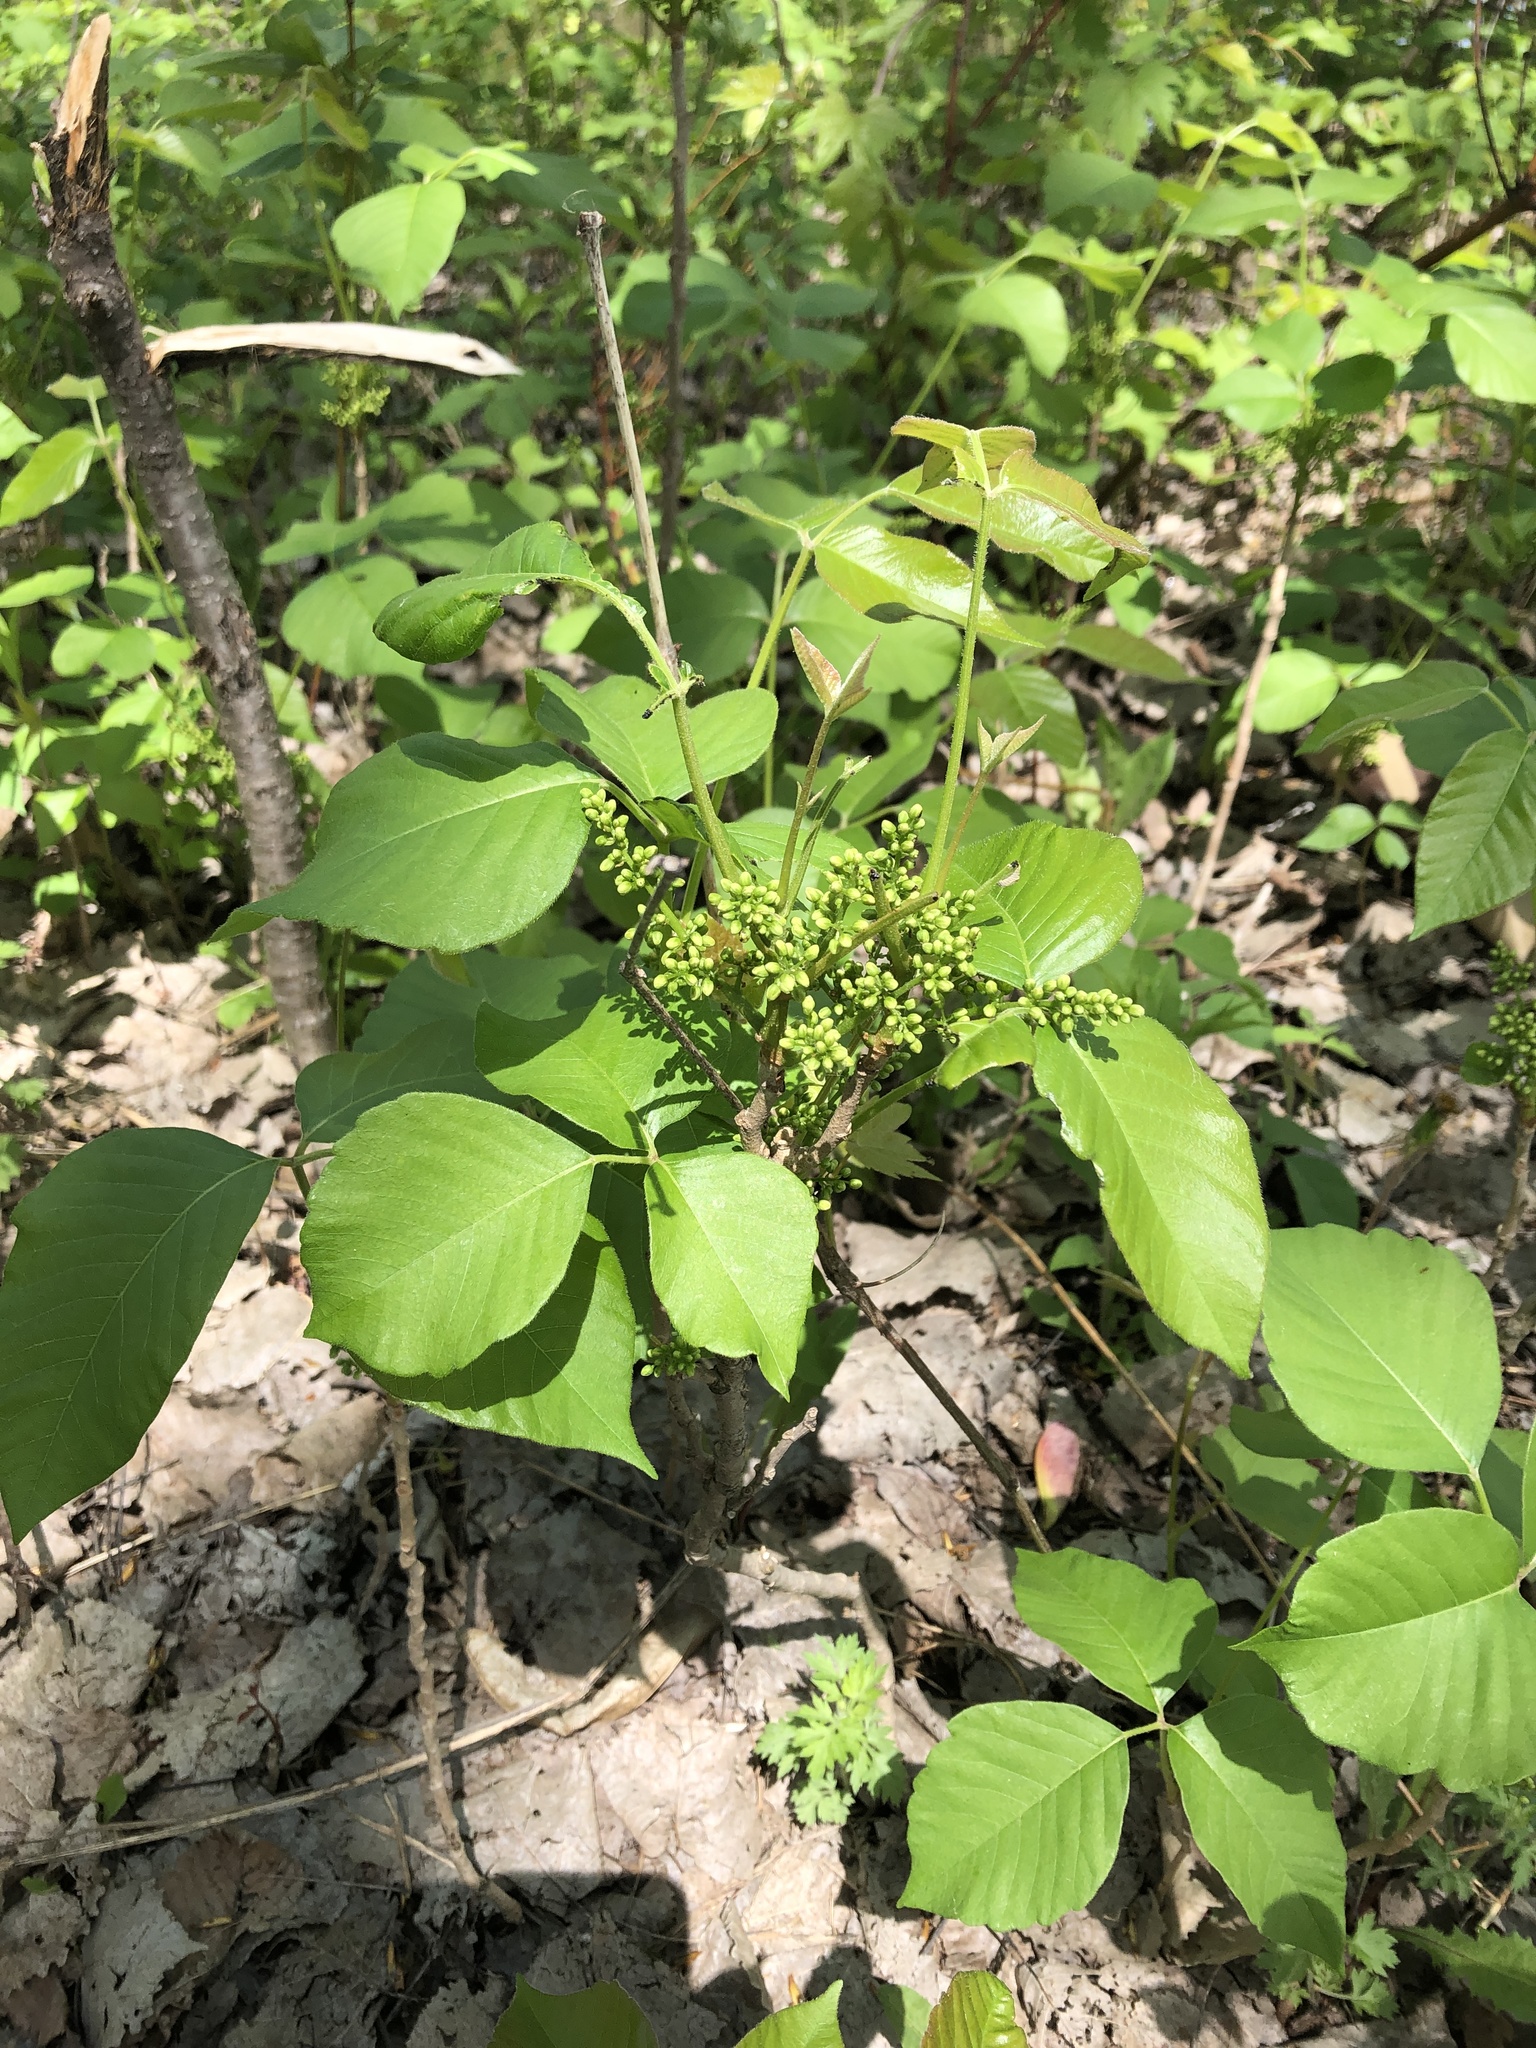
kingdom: Plantae
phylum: Tracheophyta
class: Magnoliopsida
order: Sapindales
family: Anacardiaceae
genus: Toxicodendron
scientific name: Toxicodendron rydbergii
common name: Rydberg's poison-ivy
